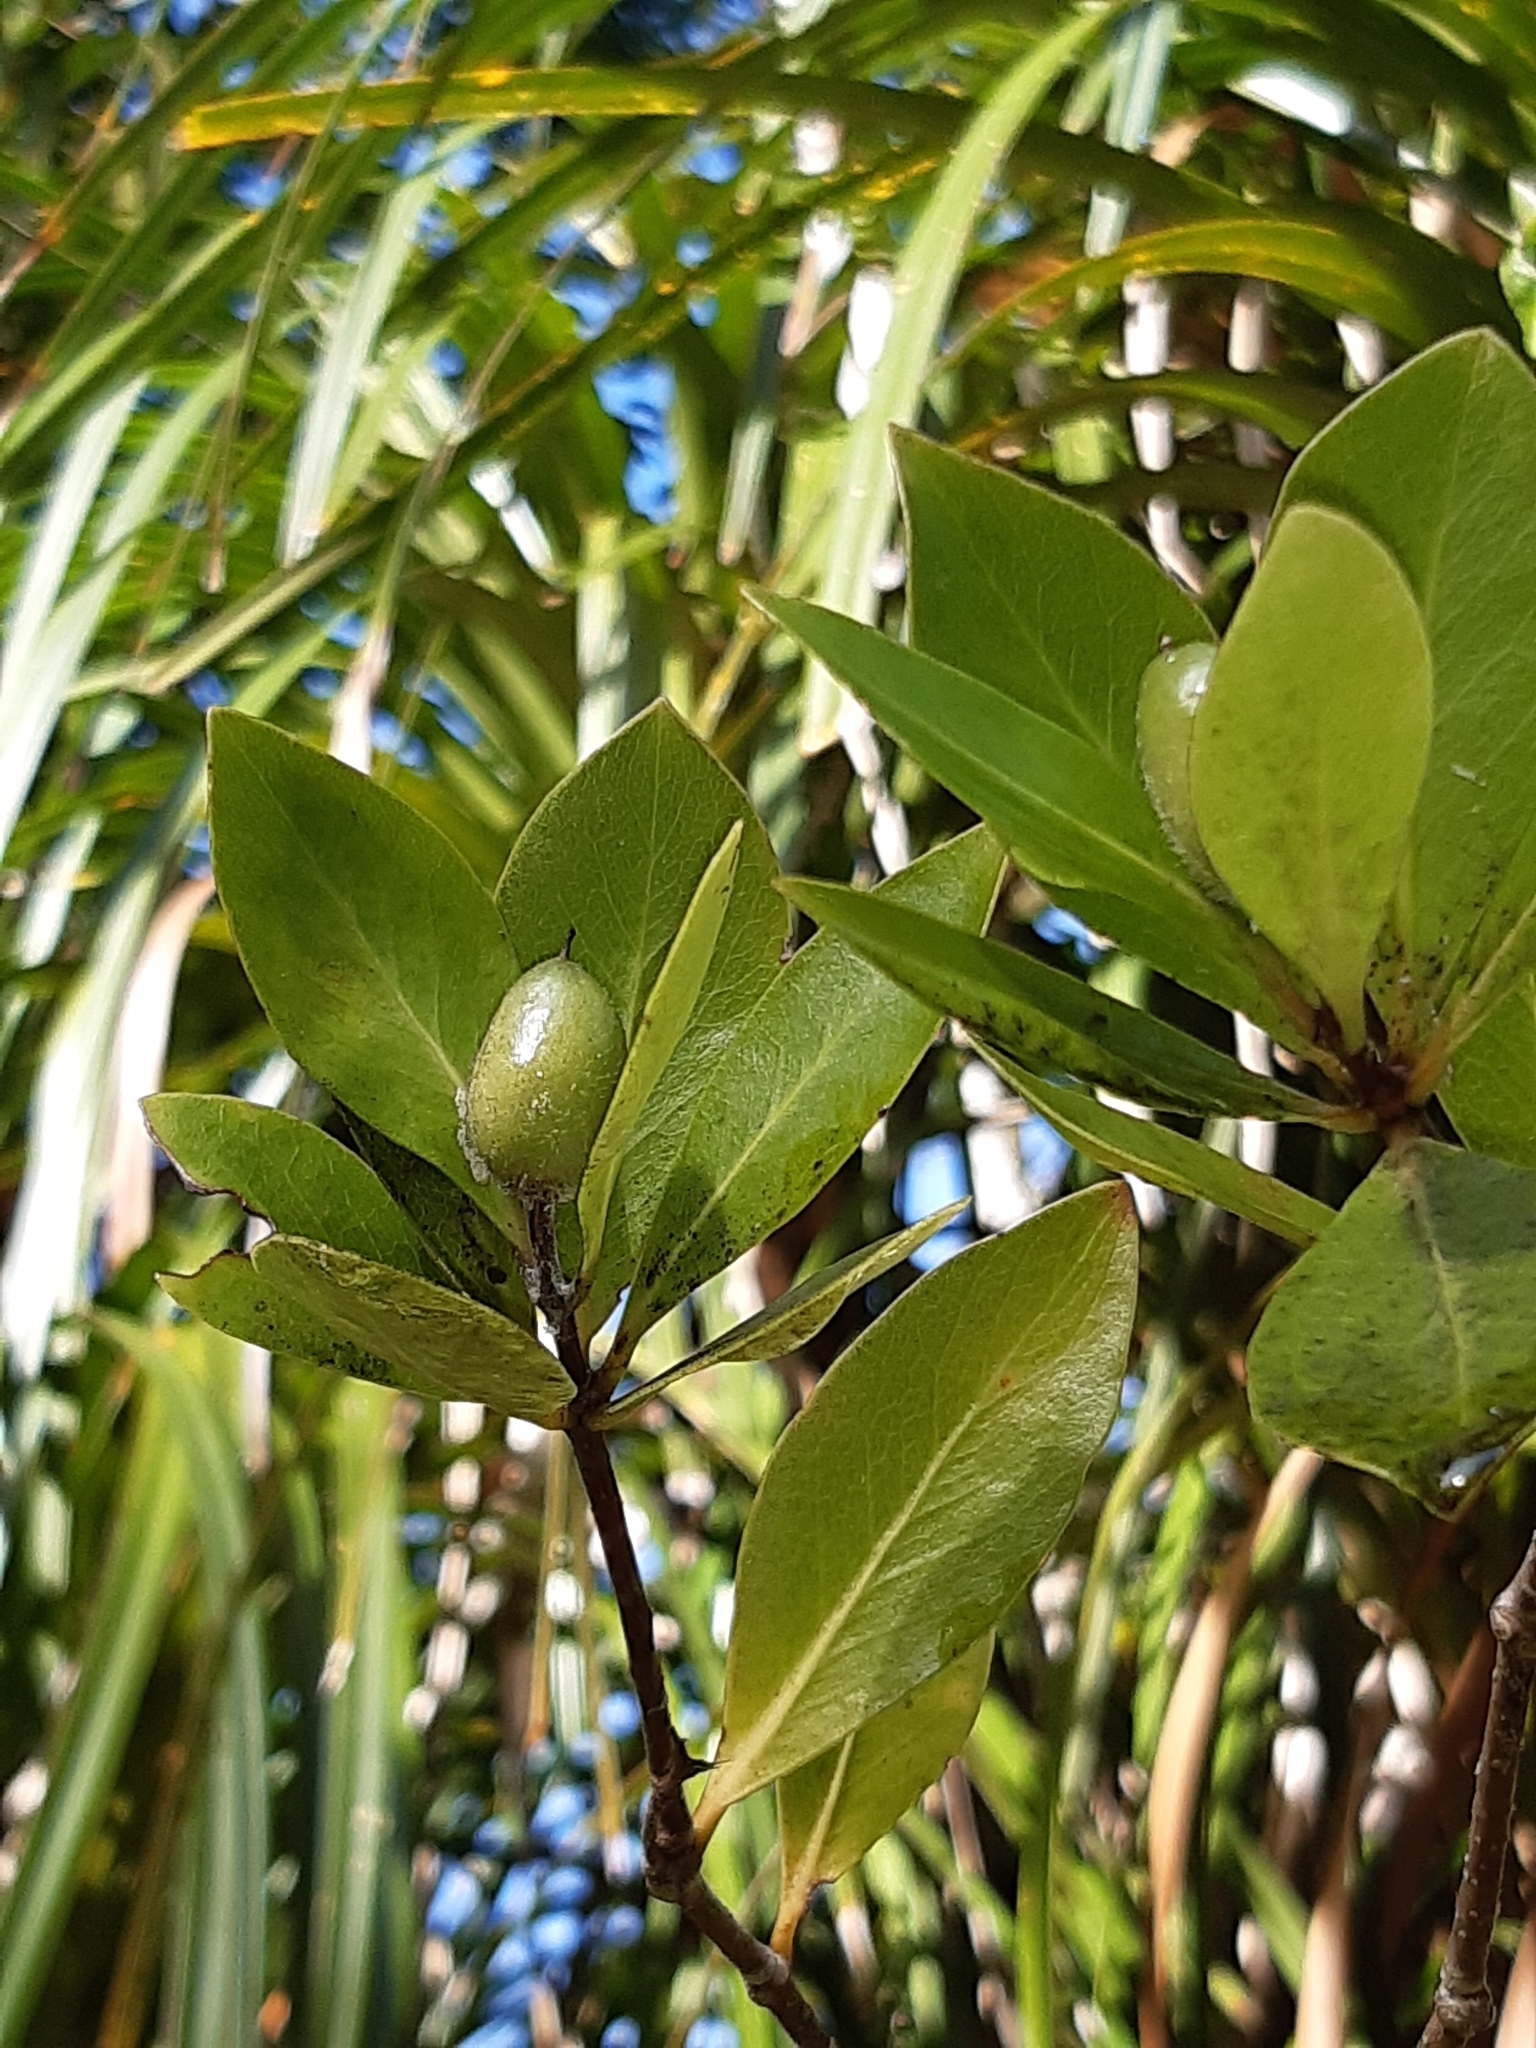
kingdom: Plantae
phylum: Tracheophyta
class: Magnoliopsida
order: Apiales
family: Pittosporaceae
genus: Pittosporum
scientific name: Pittosporum cornifolium
